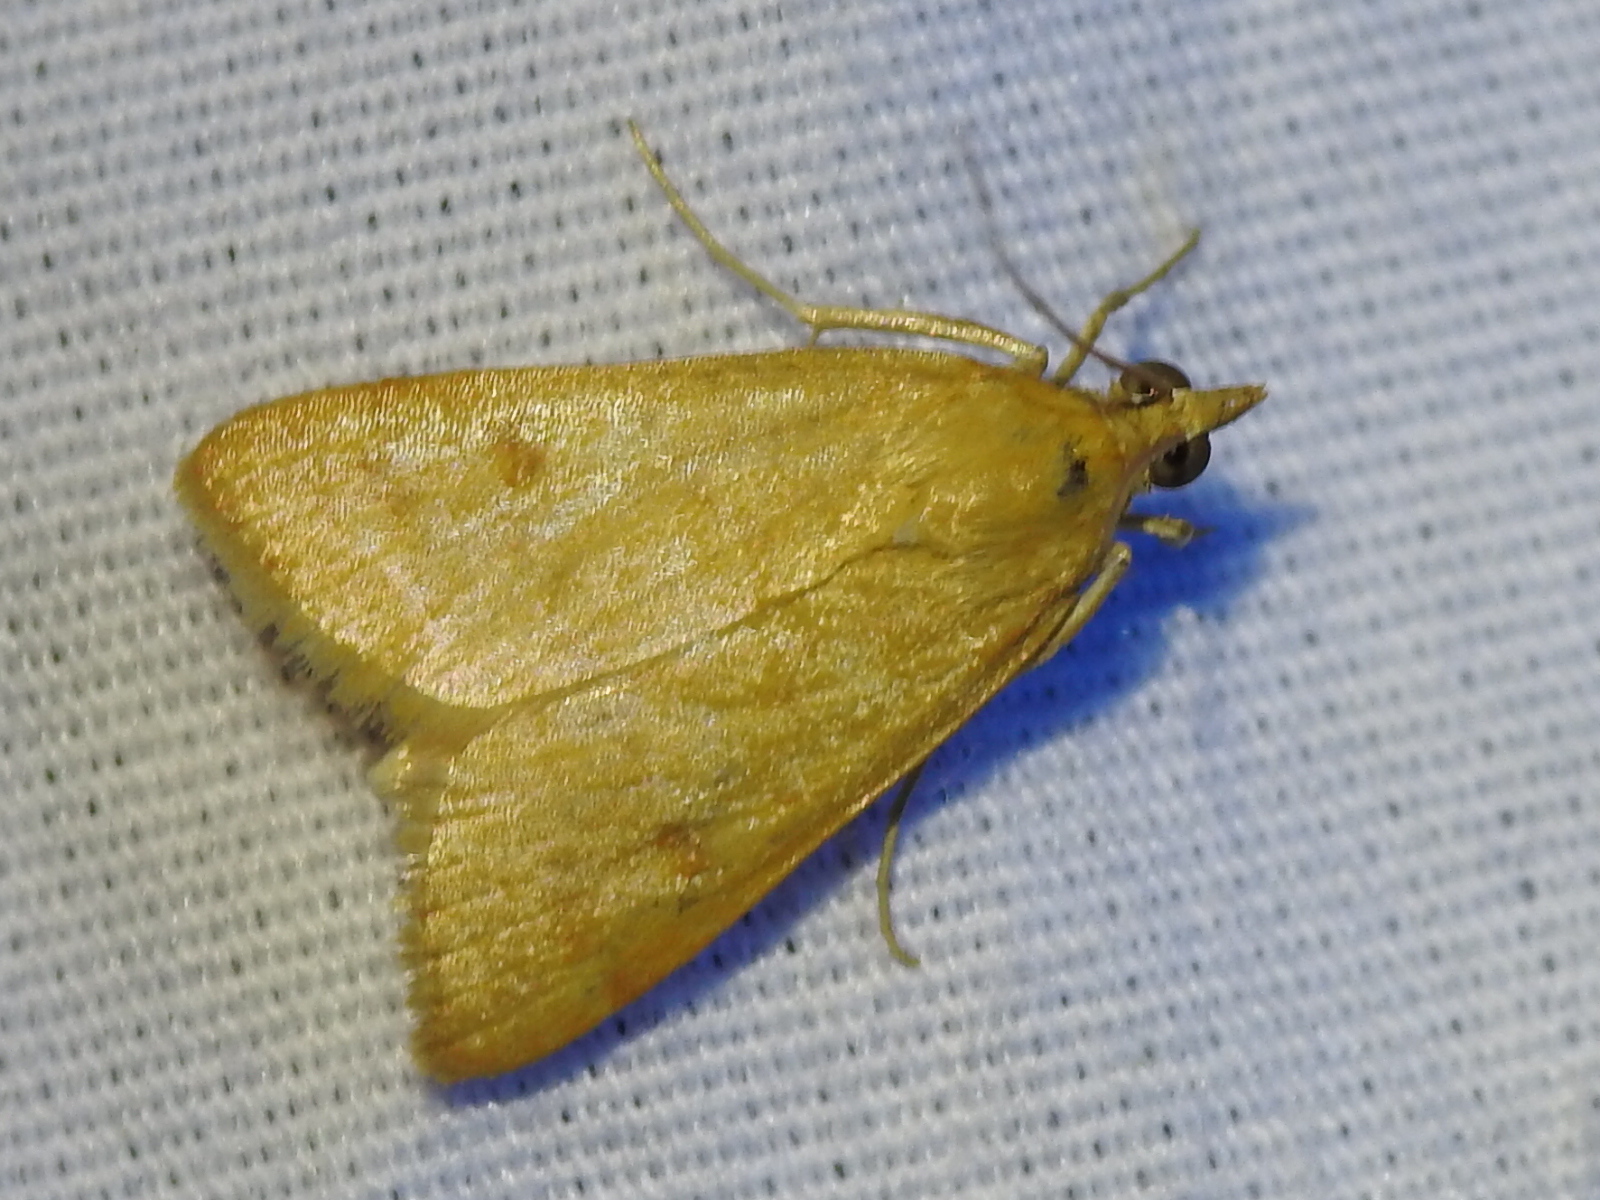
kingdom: Animalia
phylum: Arthropoda
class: Insecta
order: Lepidoptera
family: Crambidae
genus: Achyra
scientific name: Achyra rantalis
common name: Garden webworm
